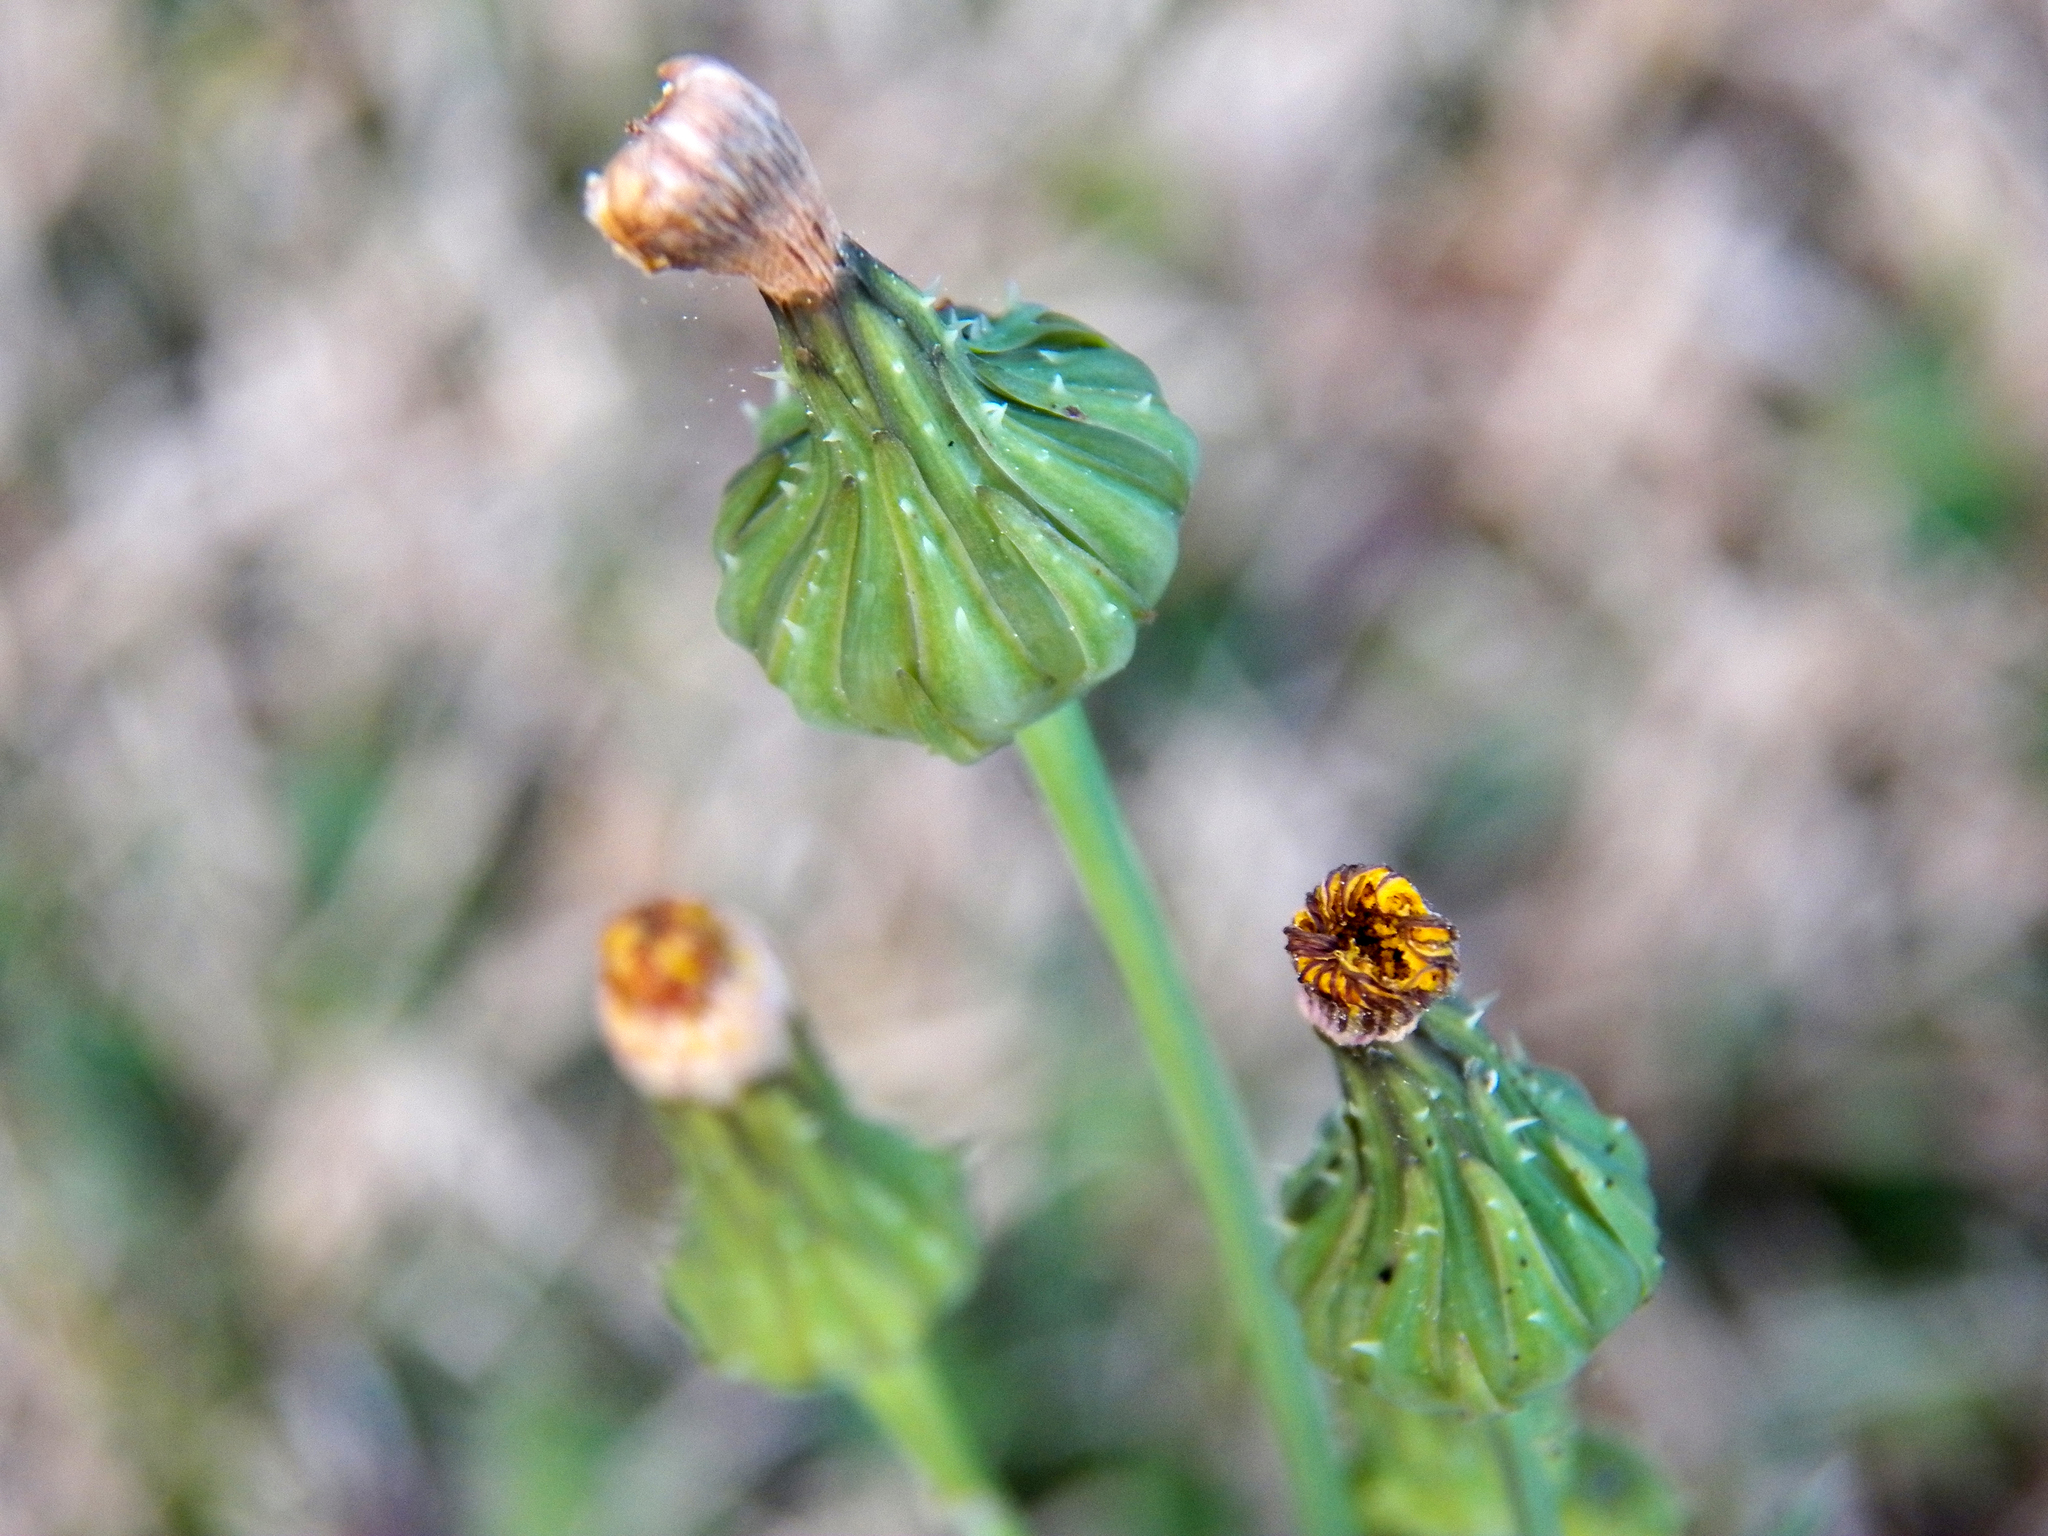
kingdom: Plantae
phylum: Tracheophyta
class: Magnoliopsida
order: Asterales
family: Asteraceae
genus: Sonchus
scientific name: Sonchus oleraceus
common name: Common sowthistle
